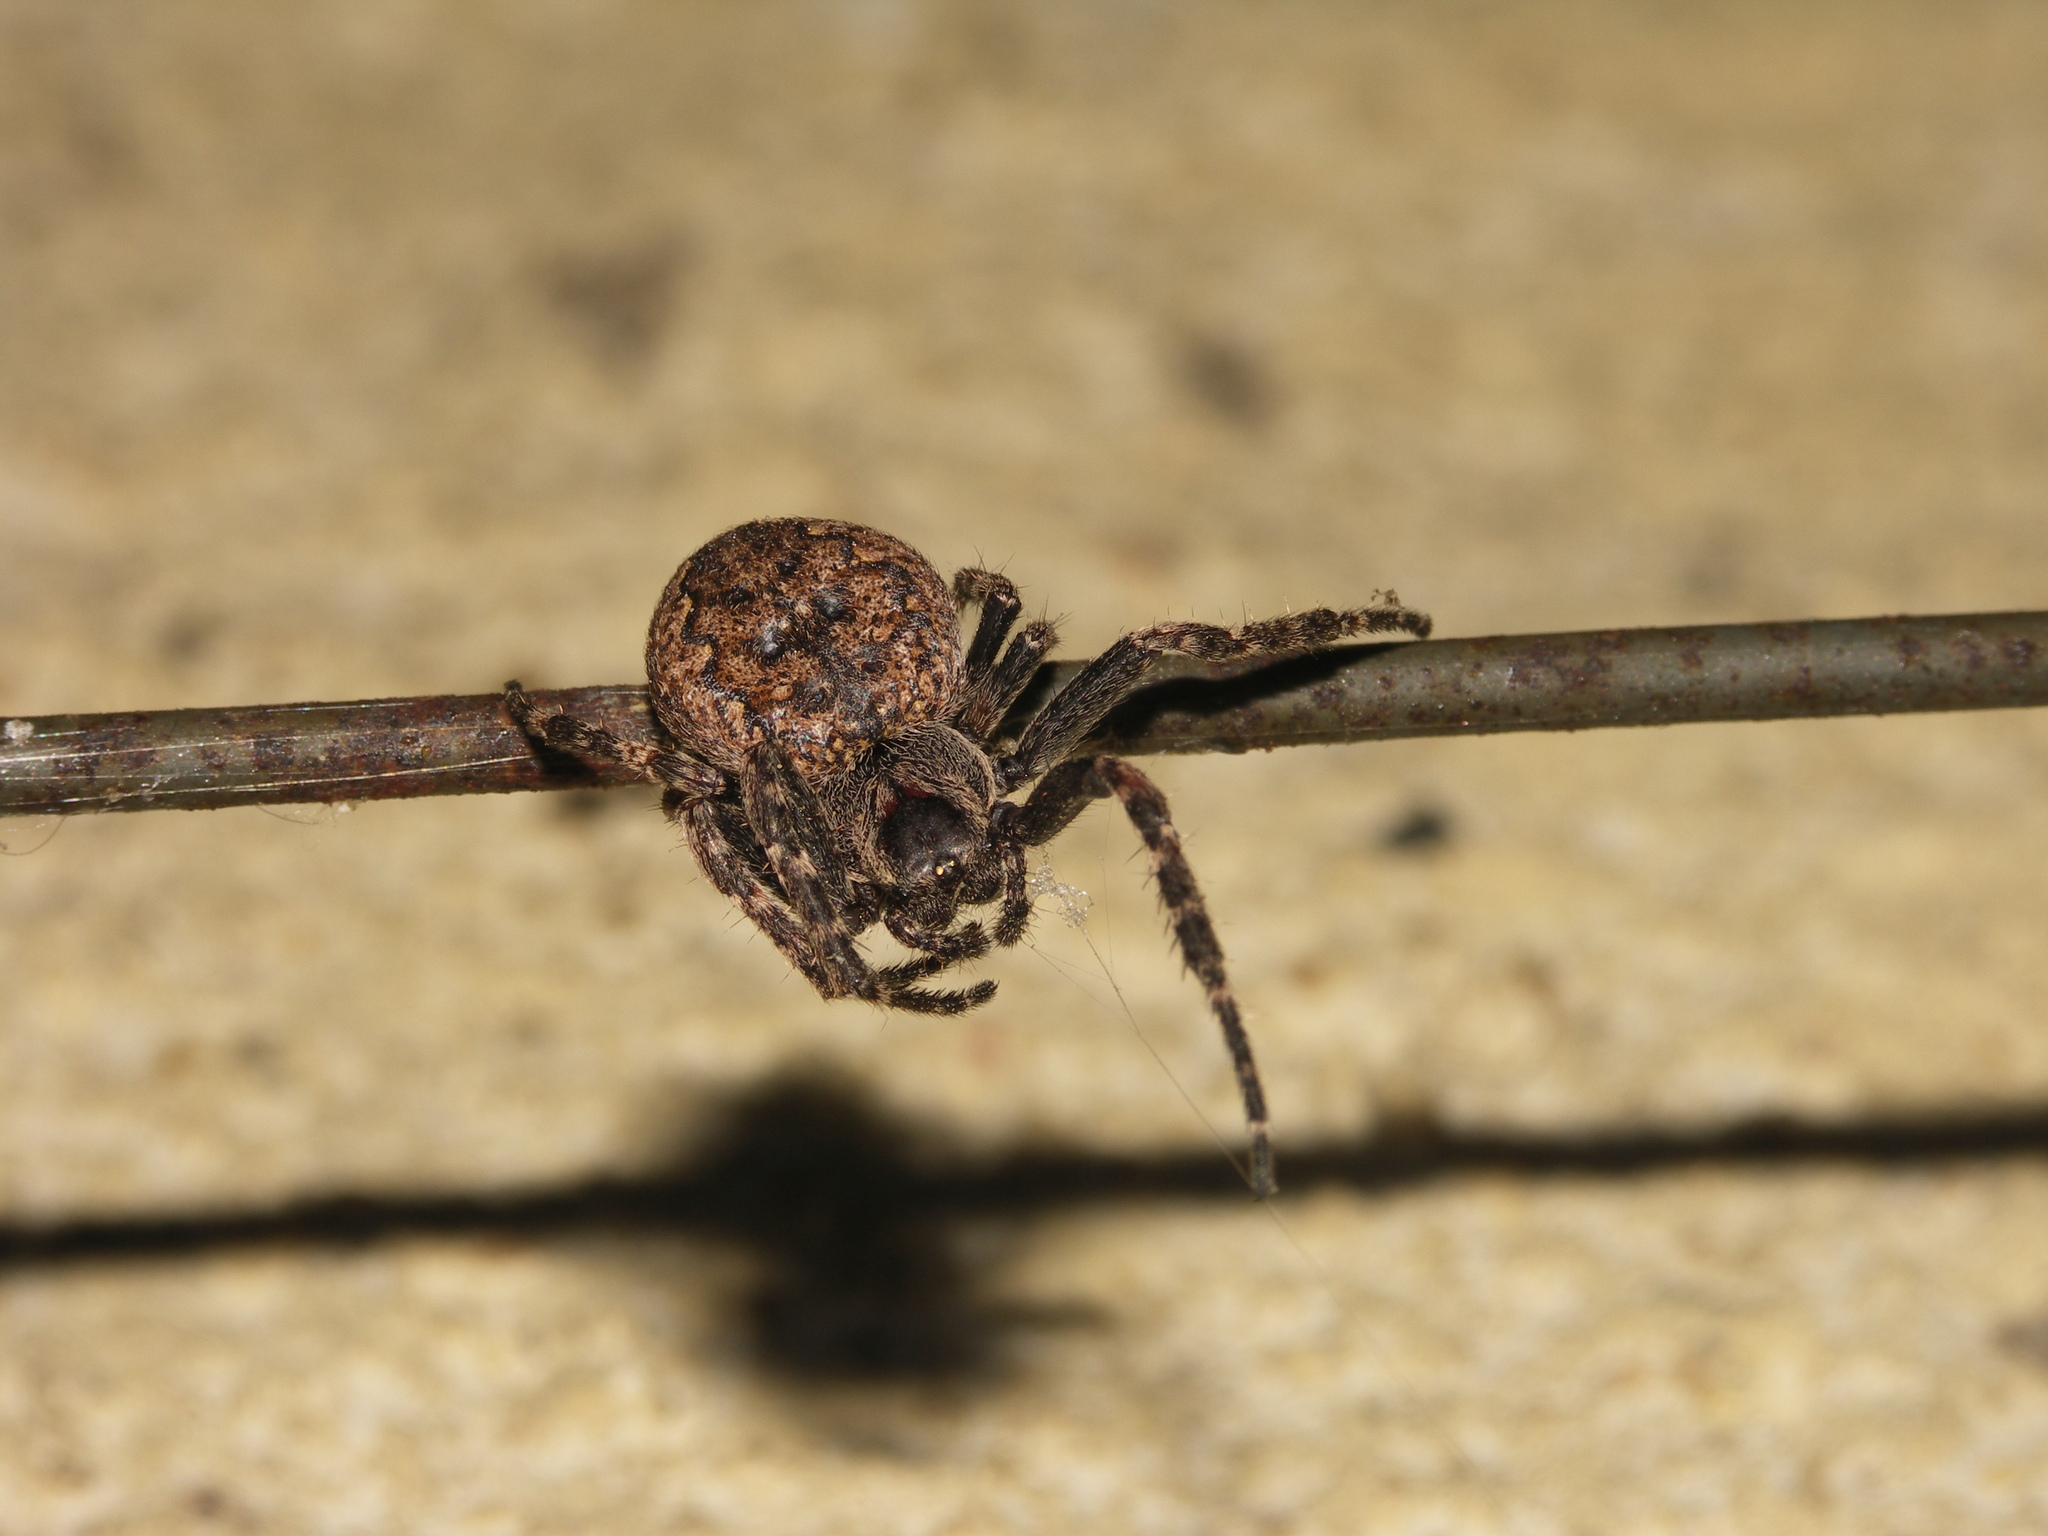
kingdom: Animalia
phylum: Arthropoda
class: Arachnida
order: Araneae
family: Araneidae
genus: Nuctenea
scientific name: Nuctenea umbratica
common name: Toad spider
